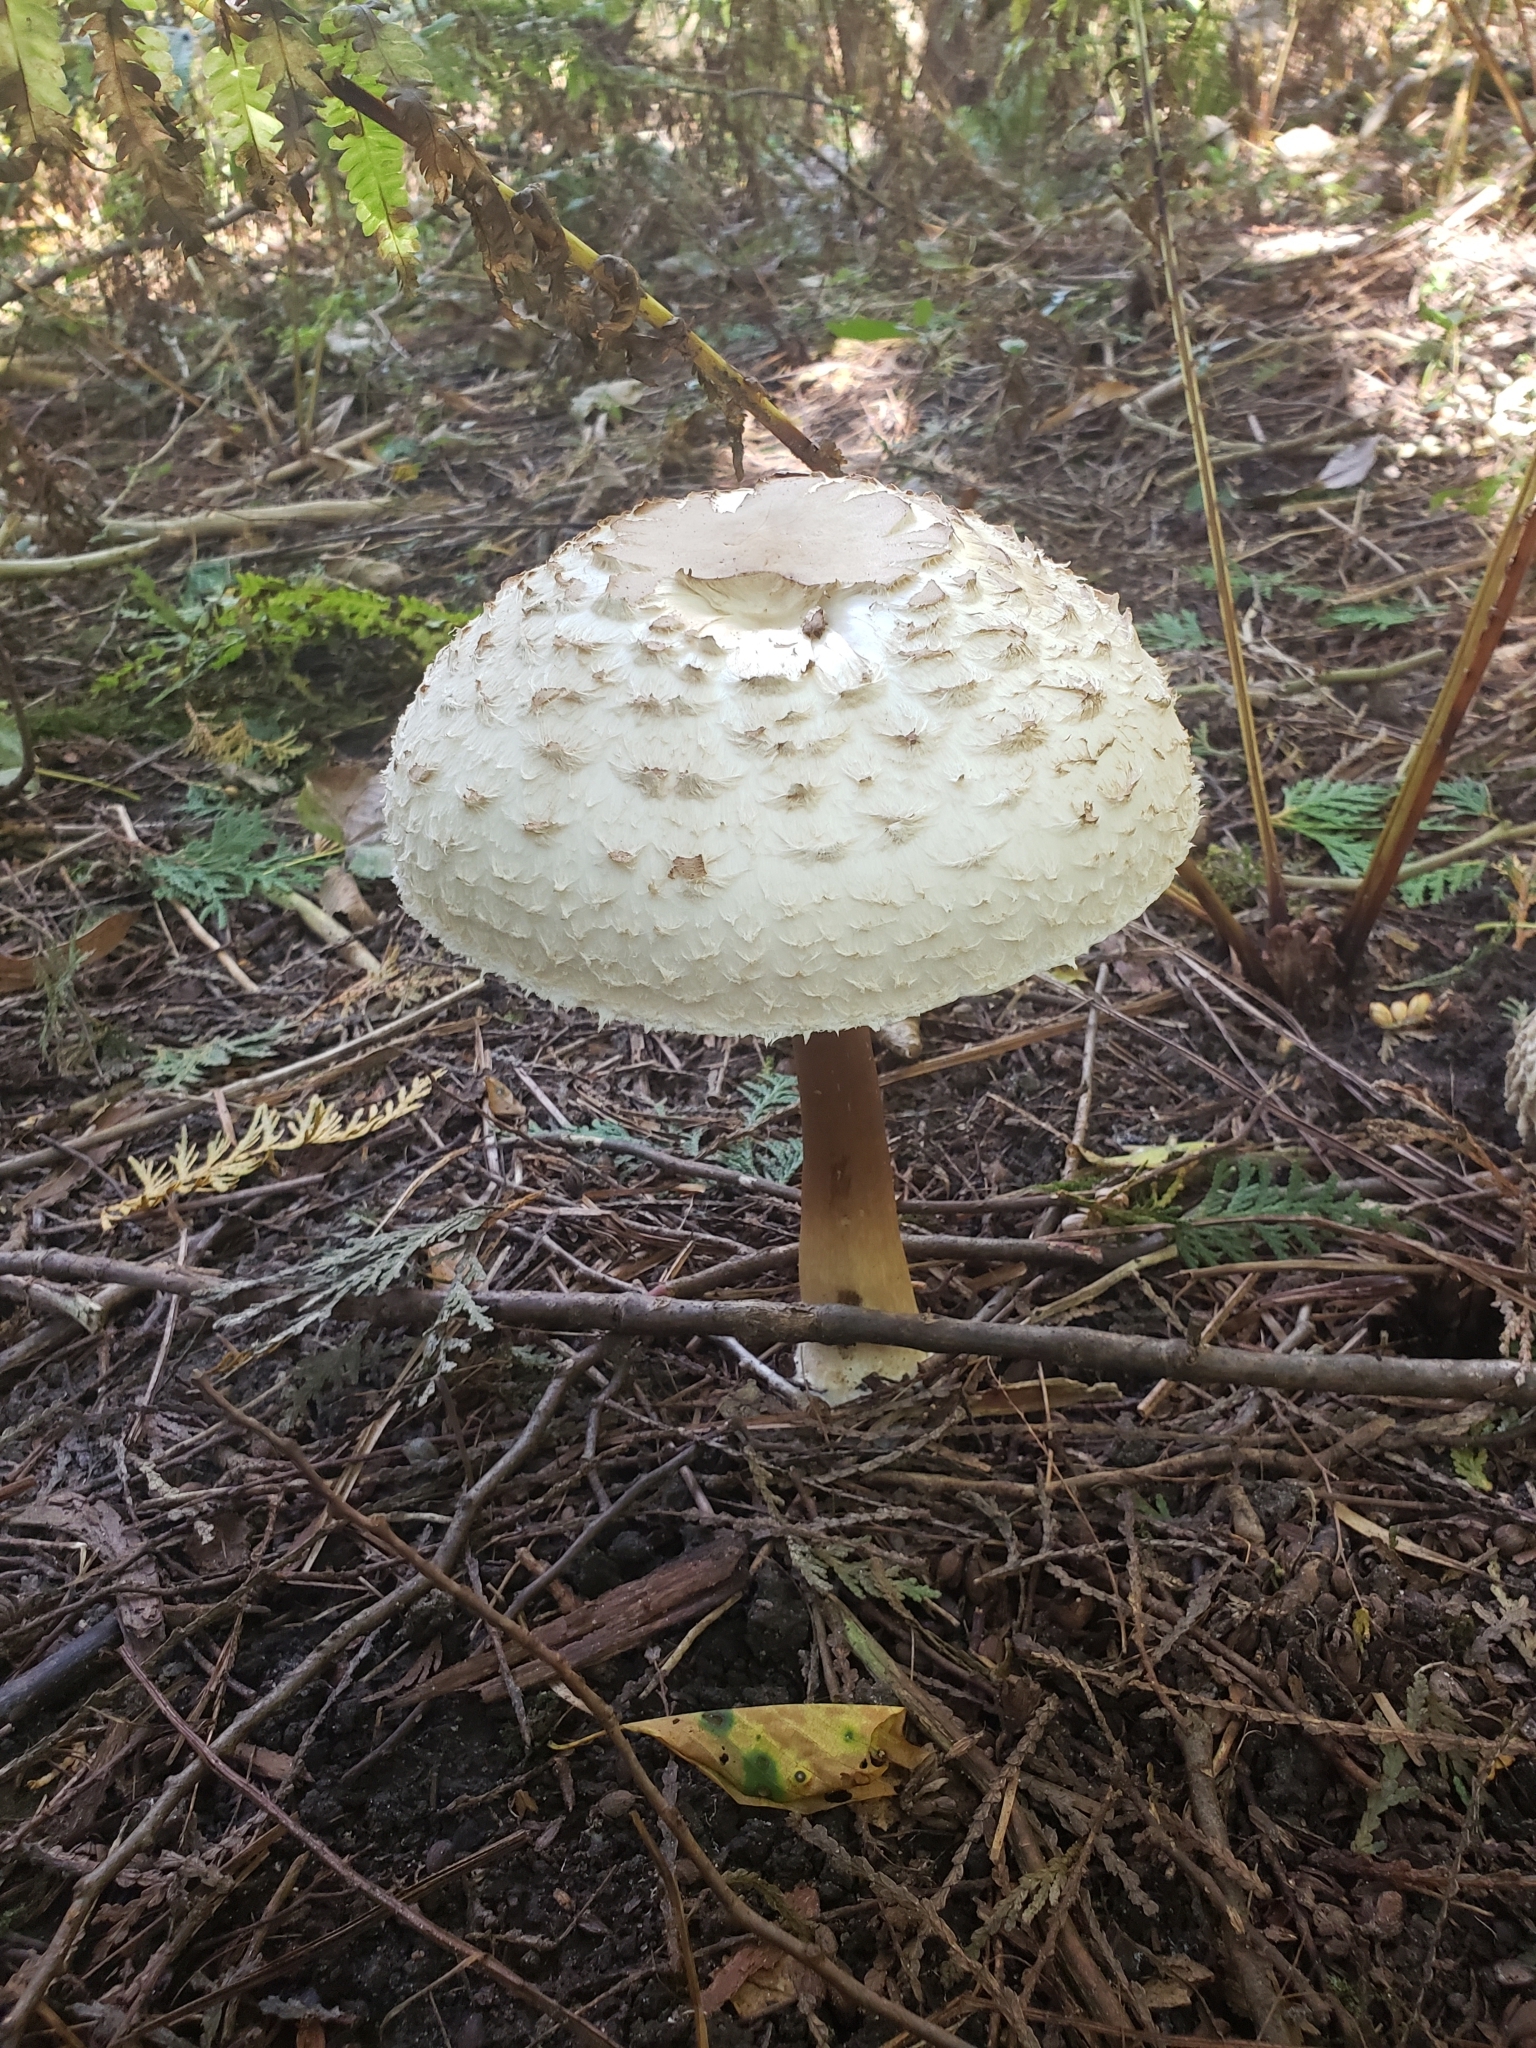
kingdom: Fungi
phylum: Basidiomycota
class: Agaricomycetes
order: Agaricales
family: Agaricaceae
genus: Chlorophyllum
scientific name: Chlorophyllum rhacodes
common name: Shaggy parasol
